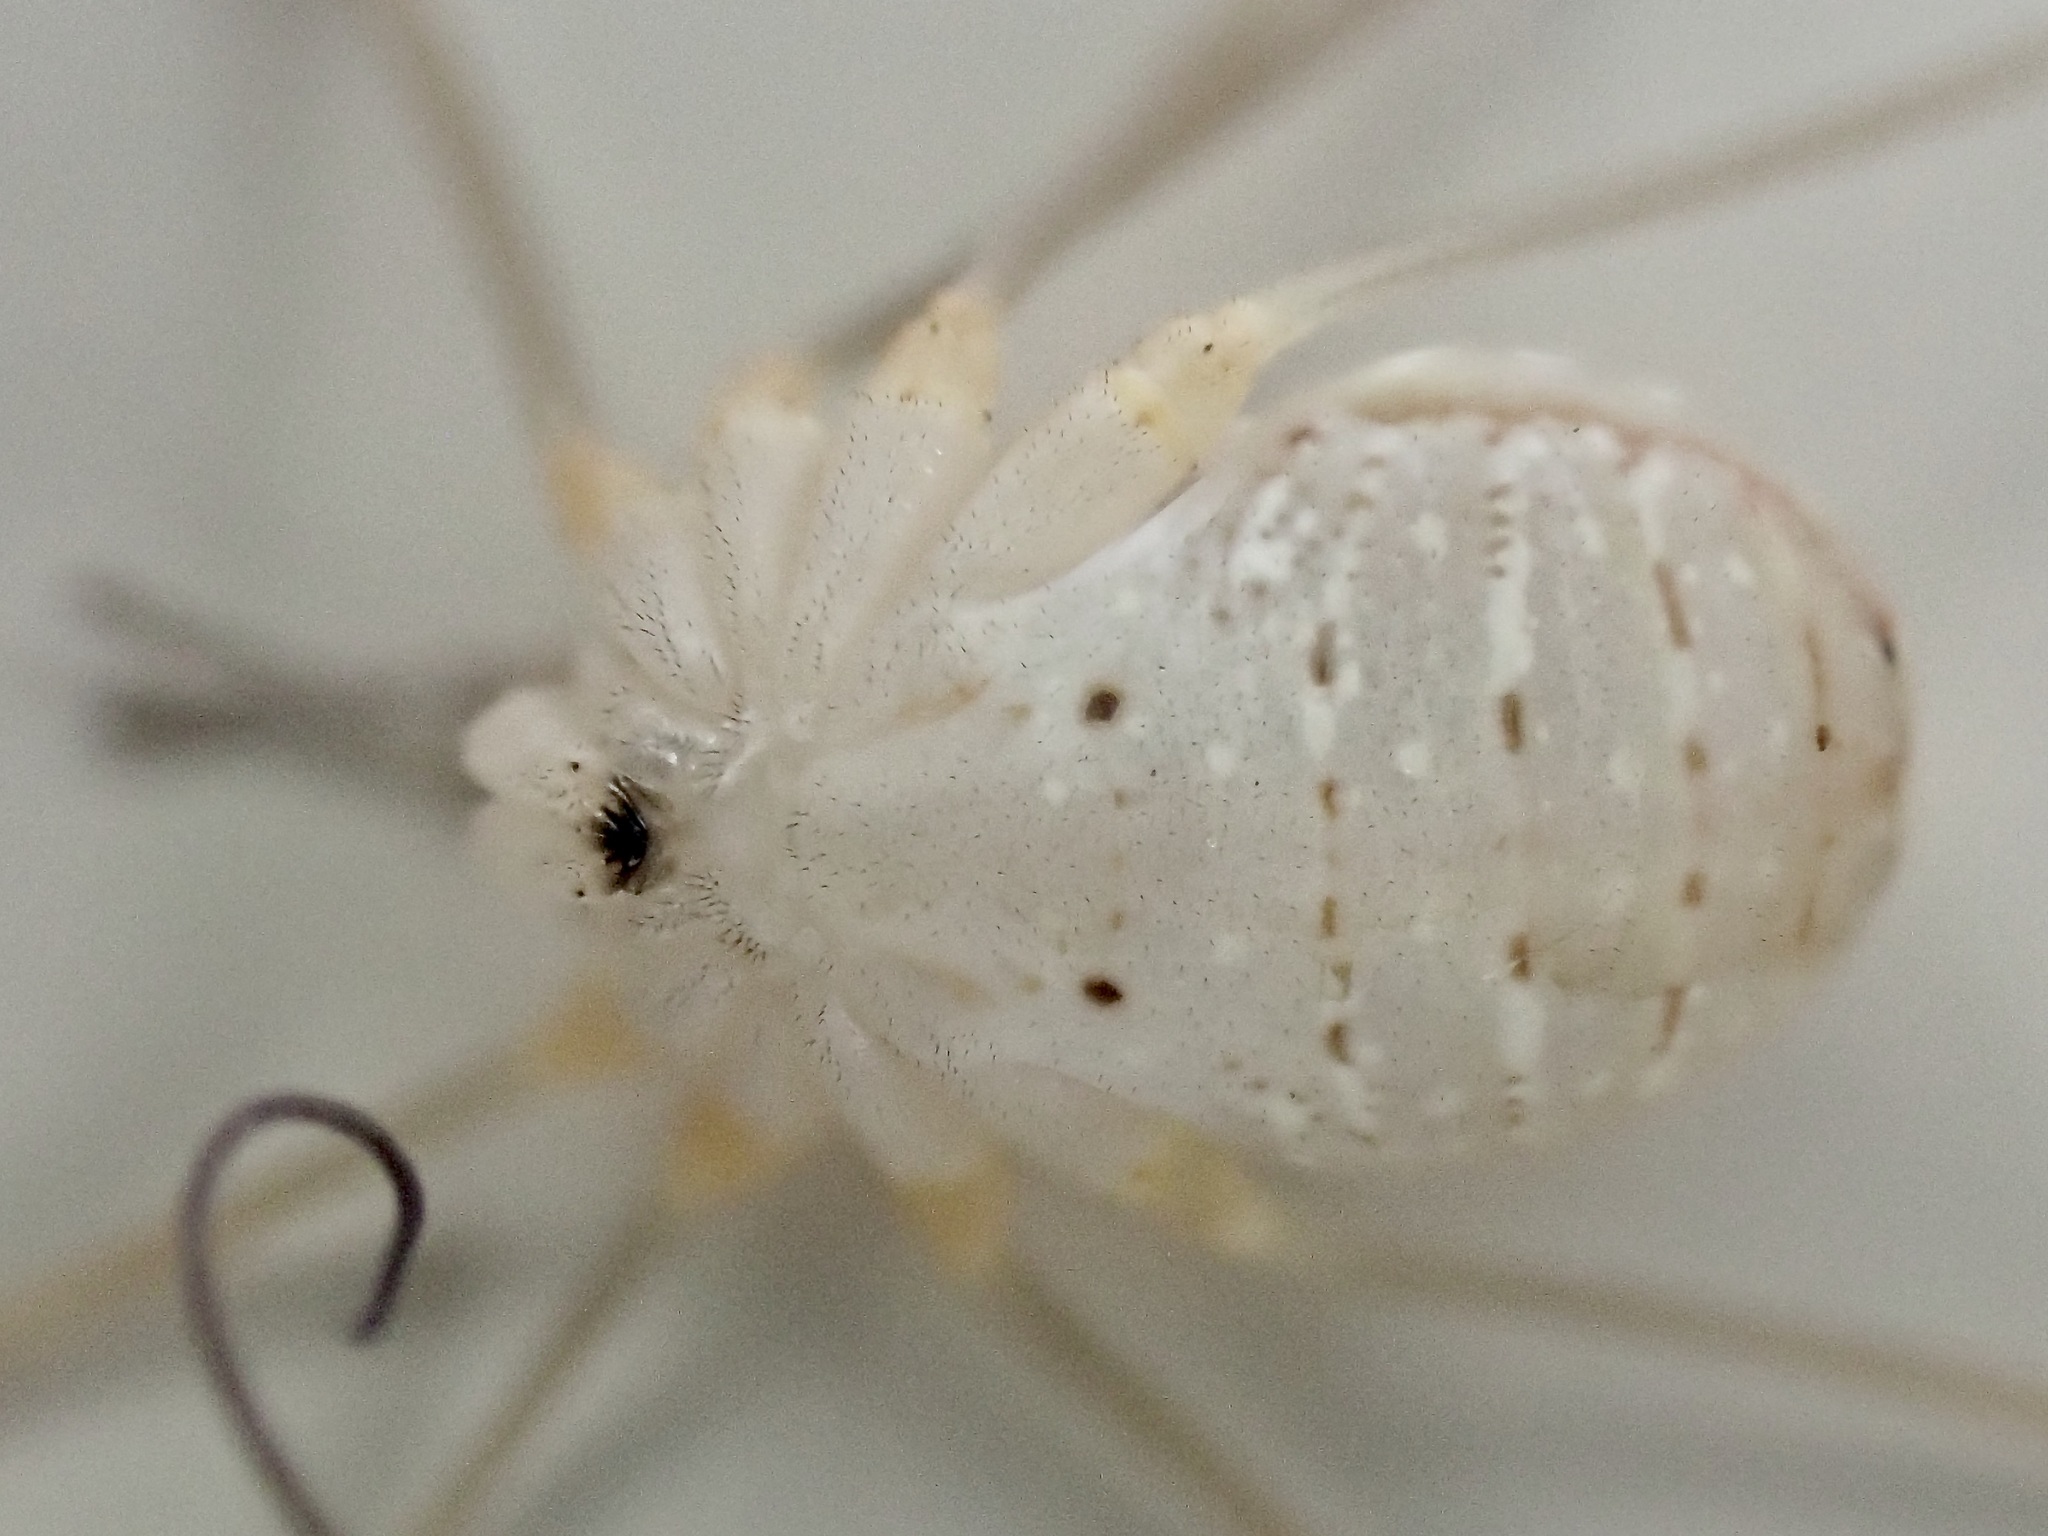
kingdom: Animalia
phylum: Arthropoda
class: Arachnida
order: Opiliones
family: Phalangiidae
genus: Opilio
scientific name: Opilio canestrinii
